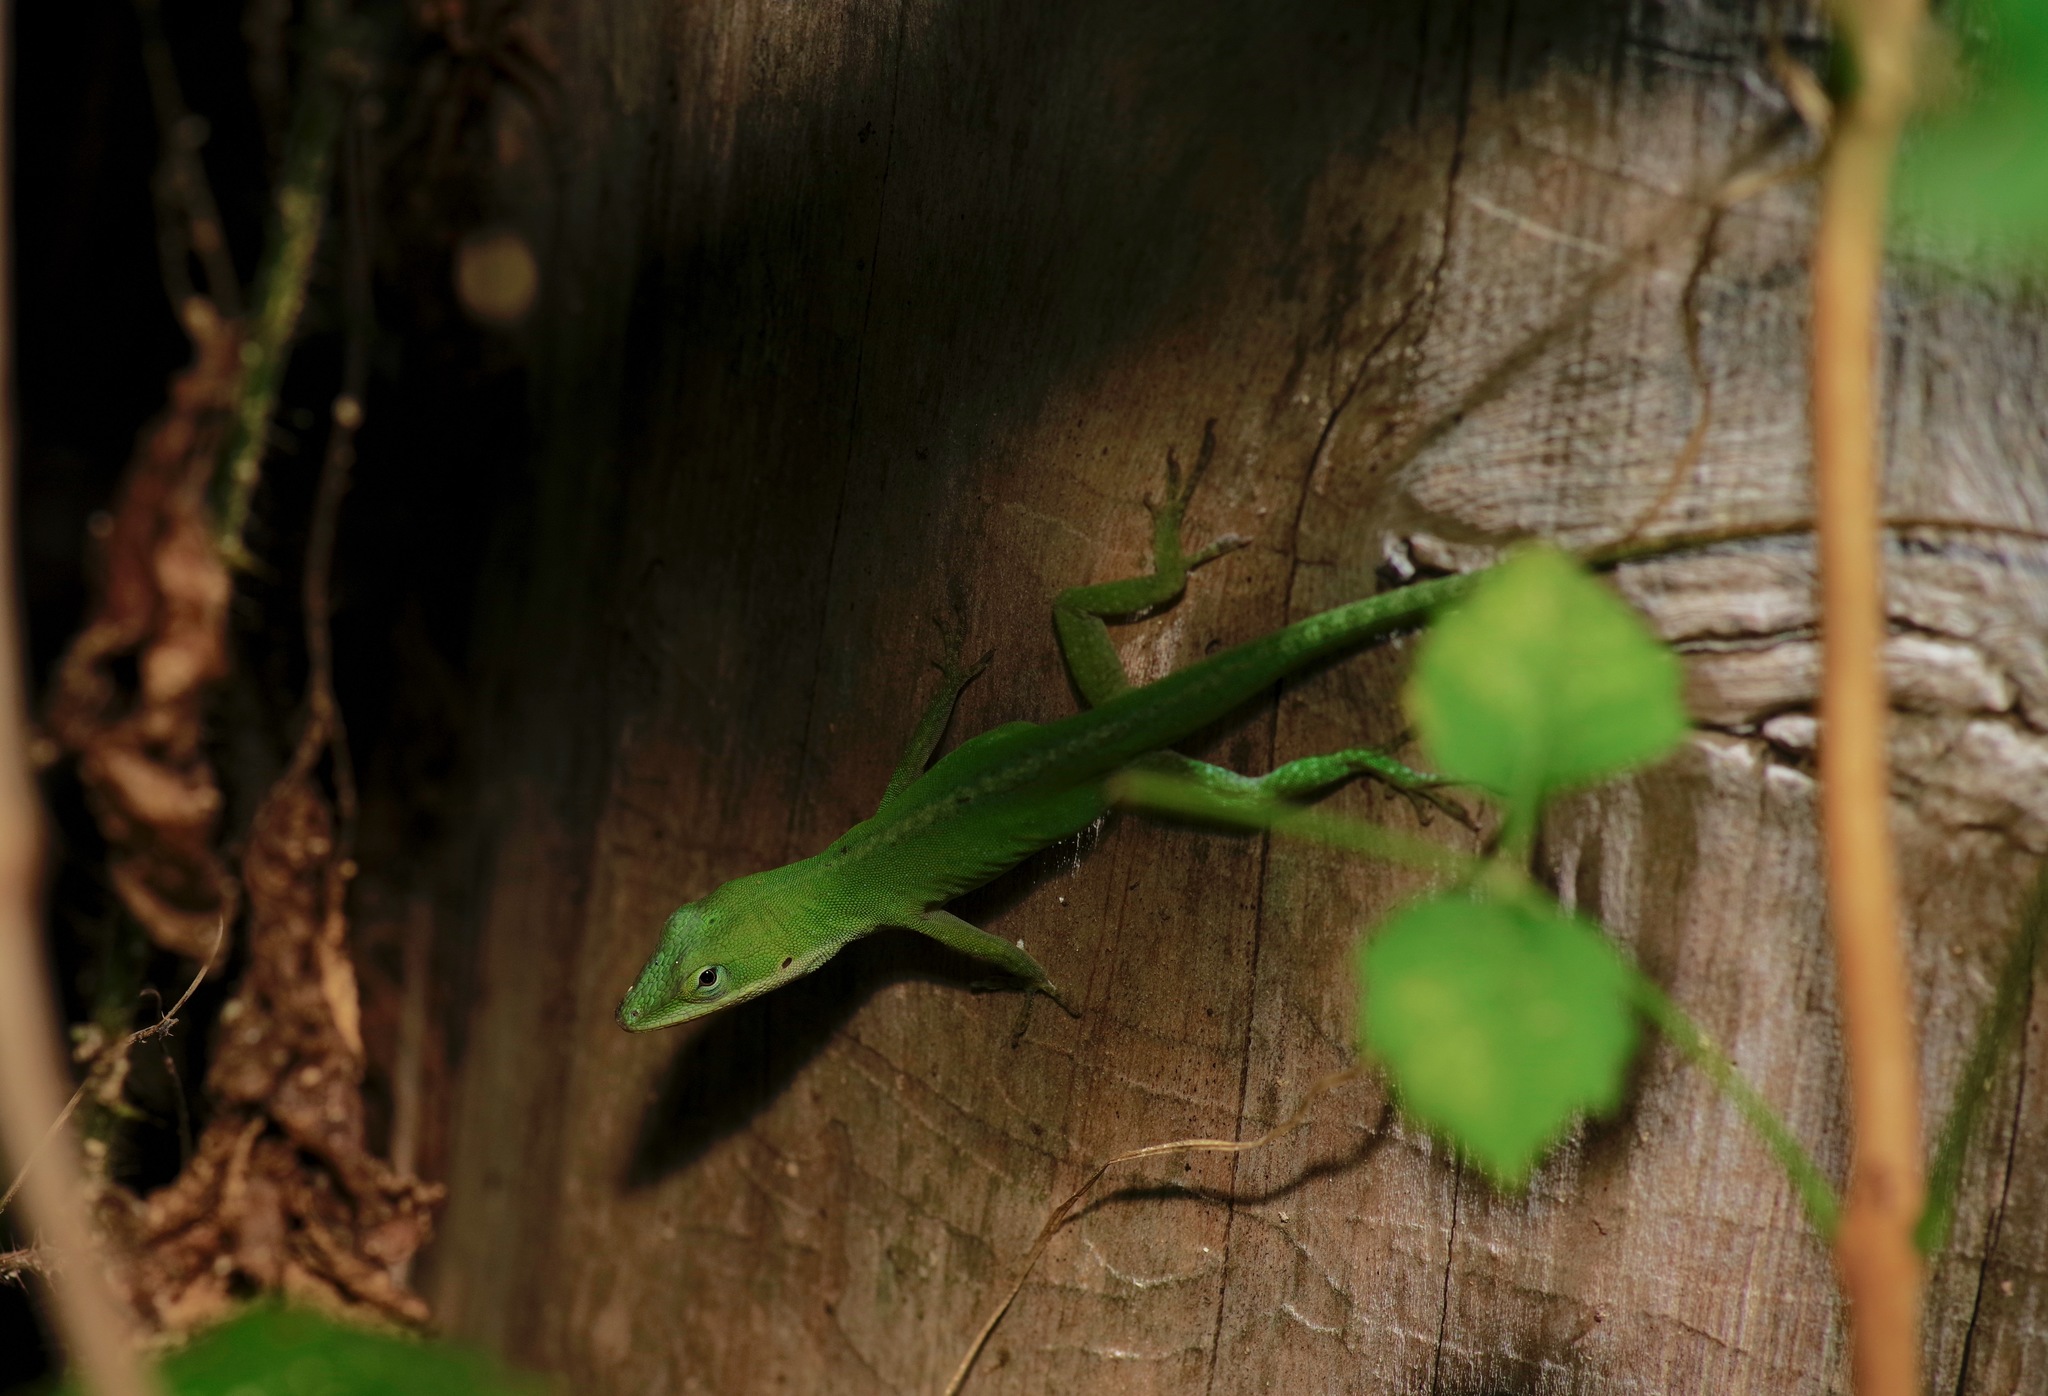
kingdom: Animalia
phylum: Chordata
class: Squamata
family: Dactyloidae
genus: Anolis
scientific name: Anolis carolinensis
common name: Green anole
